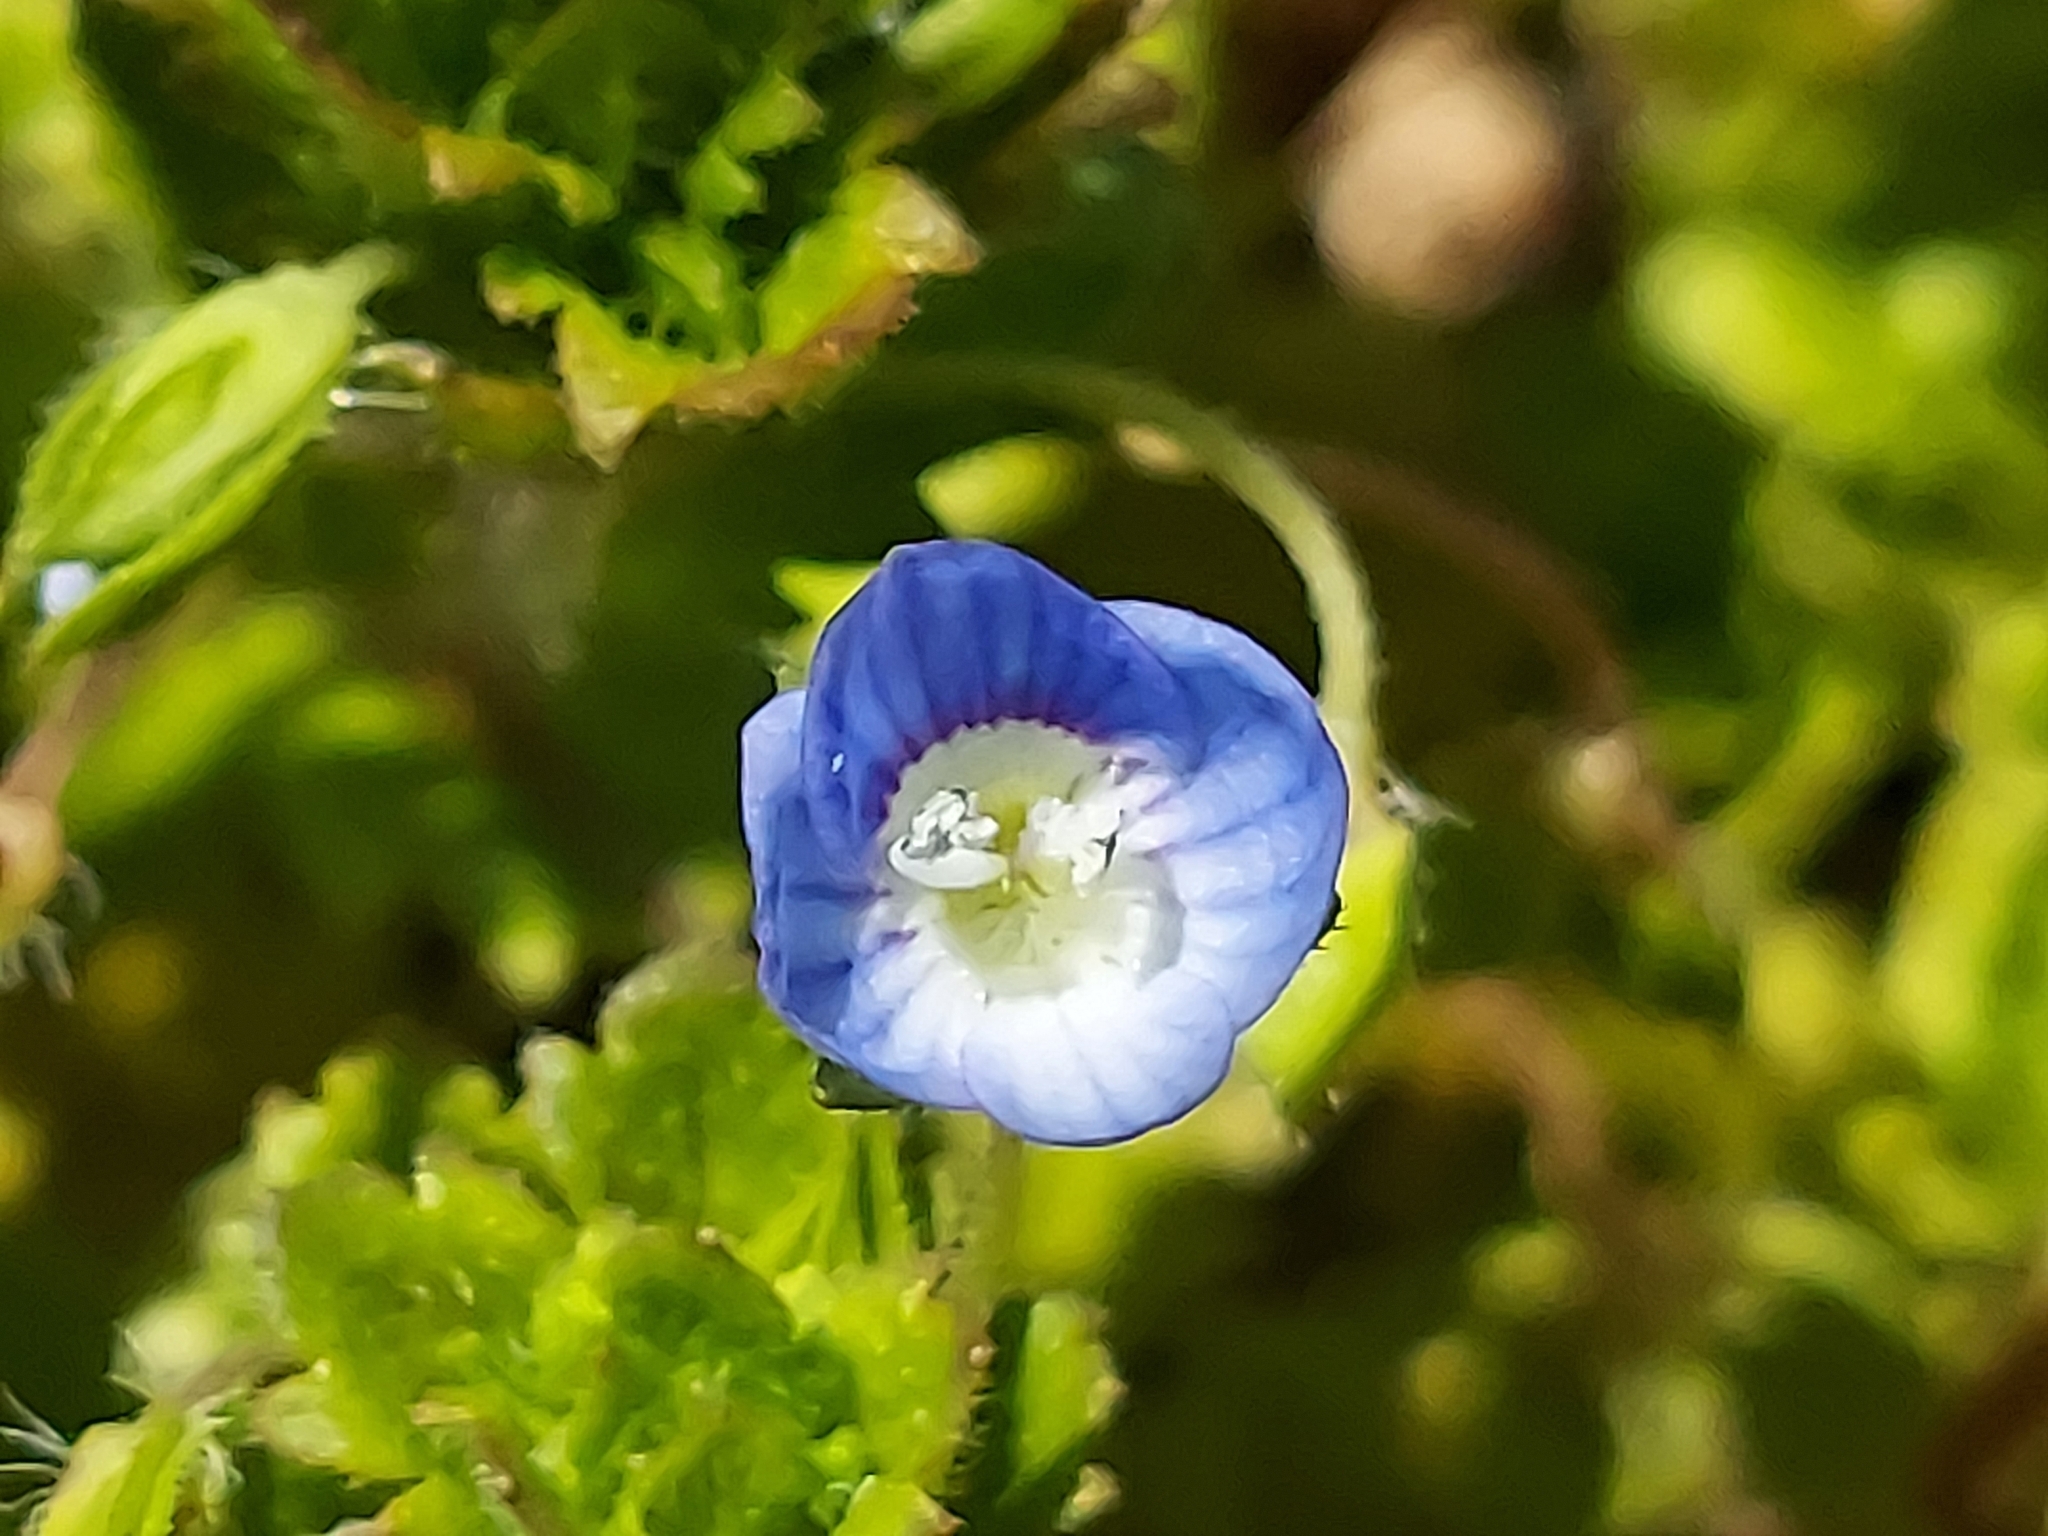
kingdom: Plantae
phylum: Tracheophyta
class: Magnoliopsida
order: Lamiales
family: Plantaginaceae
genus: Veronica
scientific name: Veronica persica
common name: Common field-speedwell
